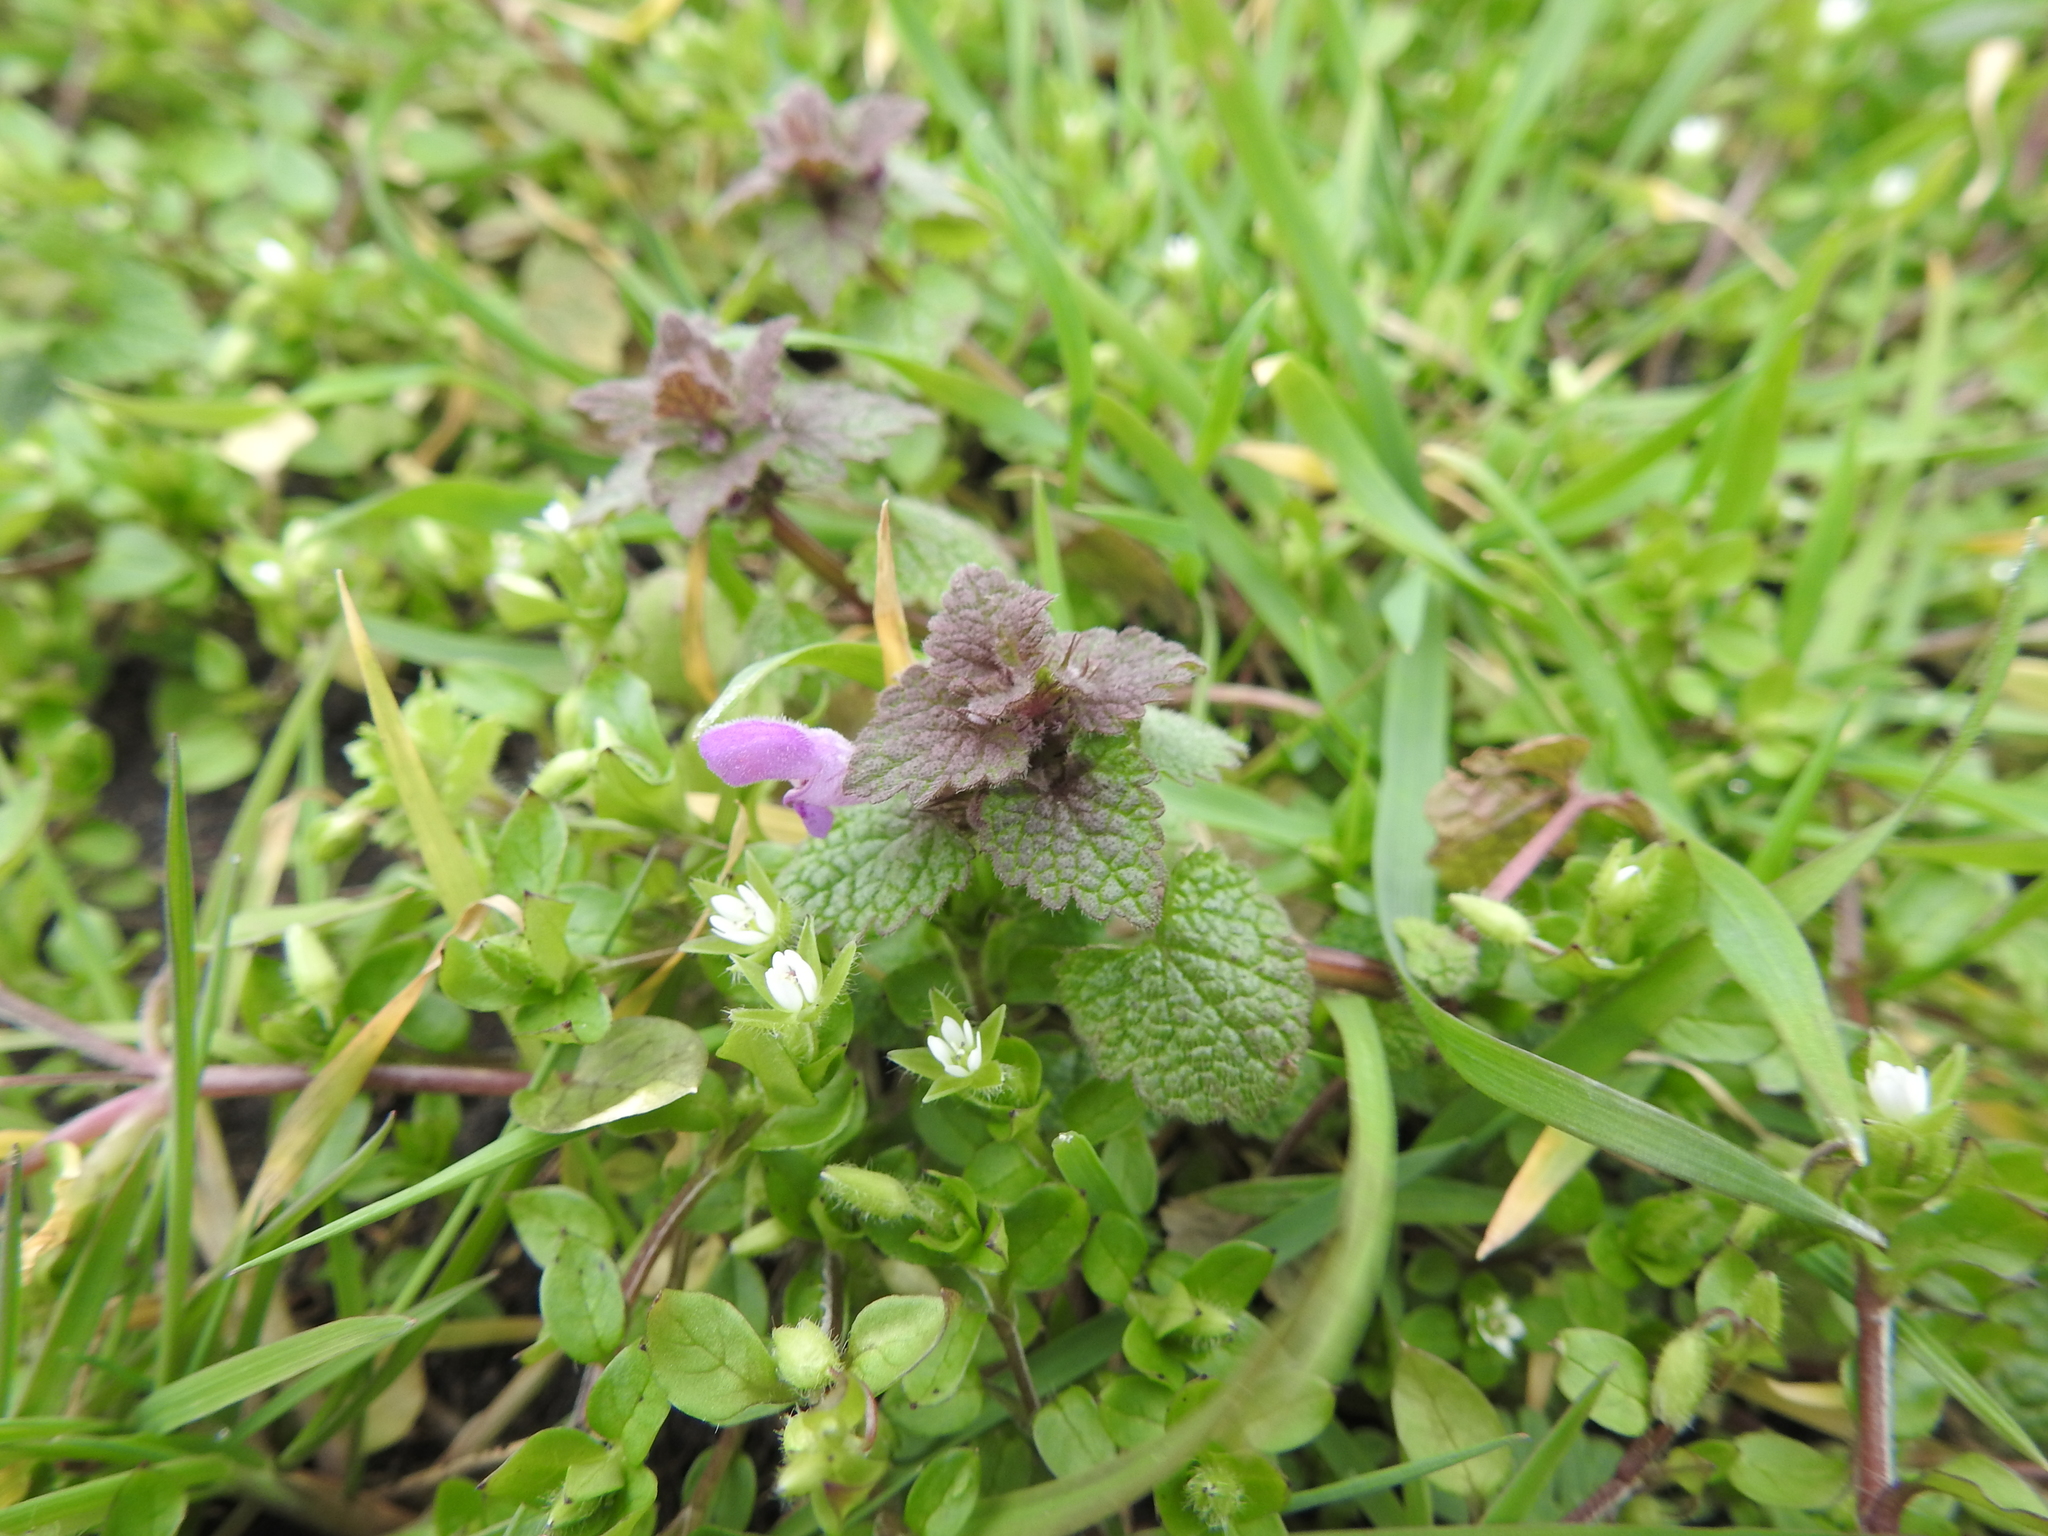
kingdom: Plantae
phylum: Tracheophyta
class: Magnoliopsida
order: Lamiales
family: Lamiaceae
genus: Lamium
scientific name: Lamium purpureum
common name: Red dead-nettle
